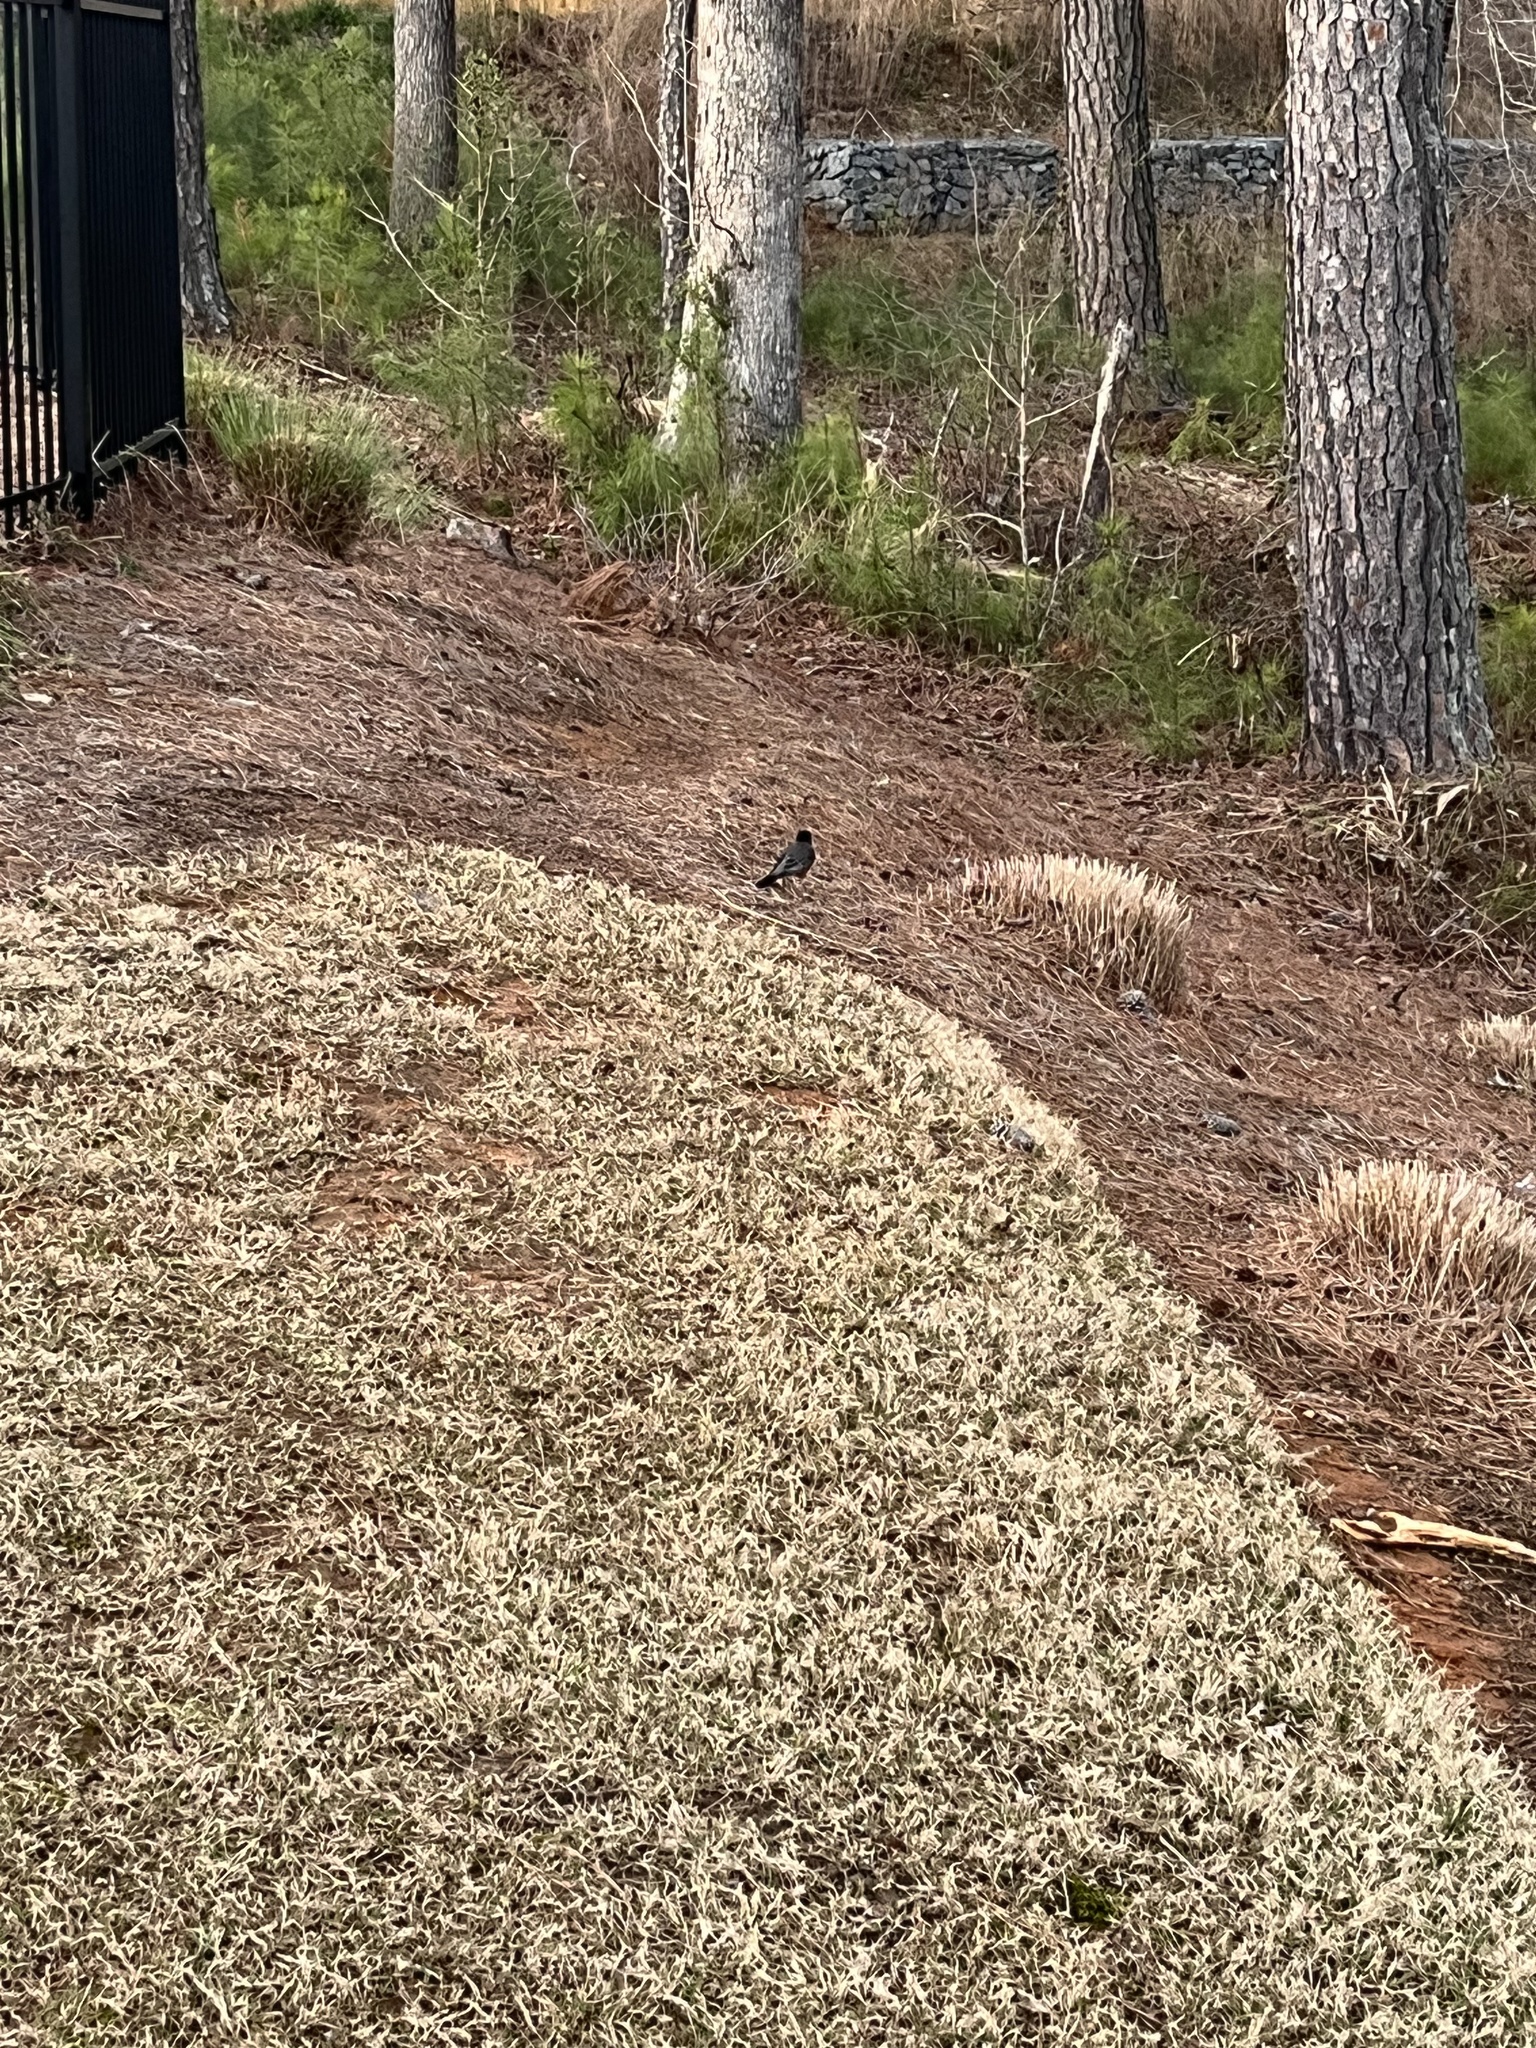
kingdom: Animalia
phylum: Chordata
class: Aves
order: Passeriformes
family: Turdidae
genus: Turdus
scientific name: Turdus migratorius
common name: American robin
